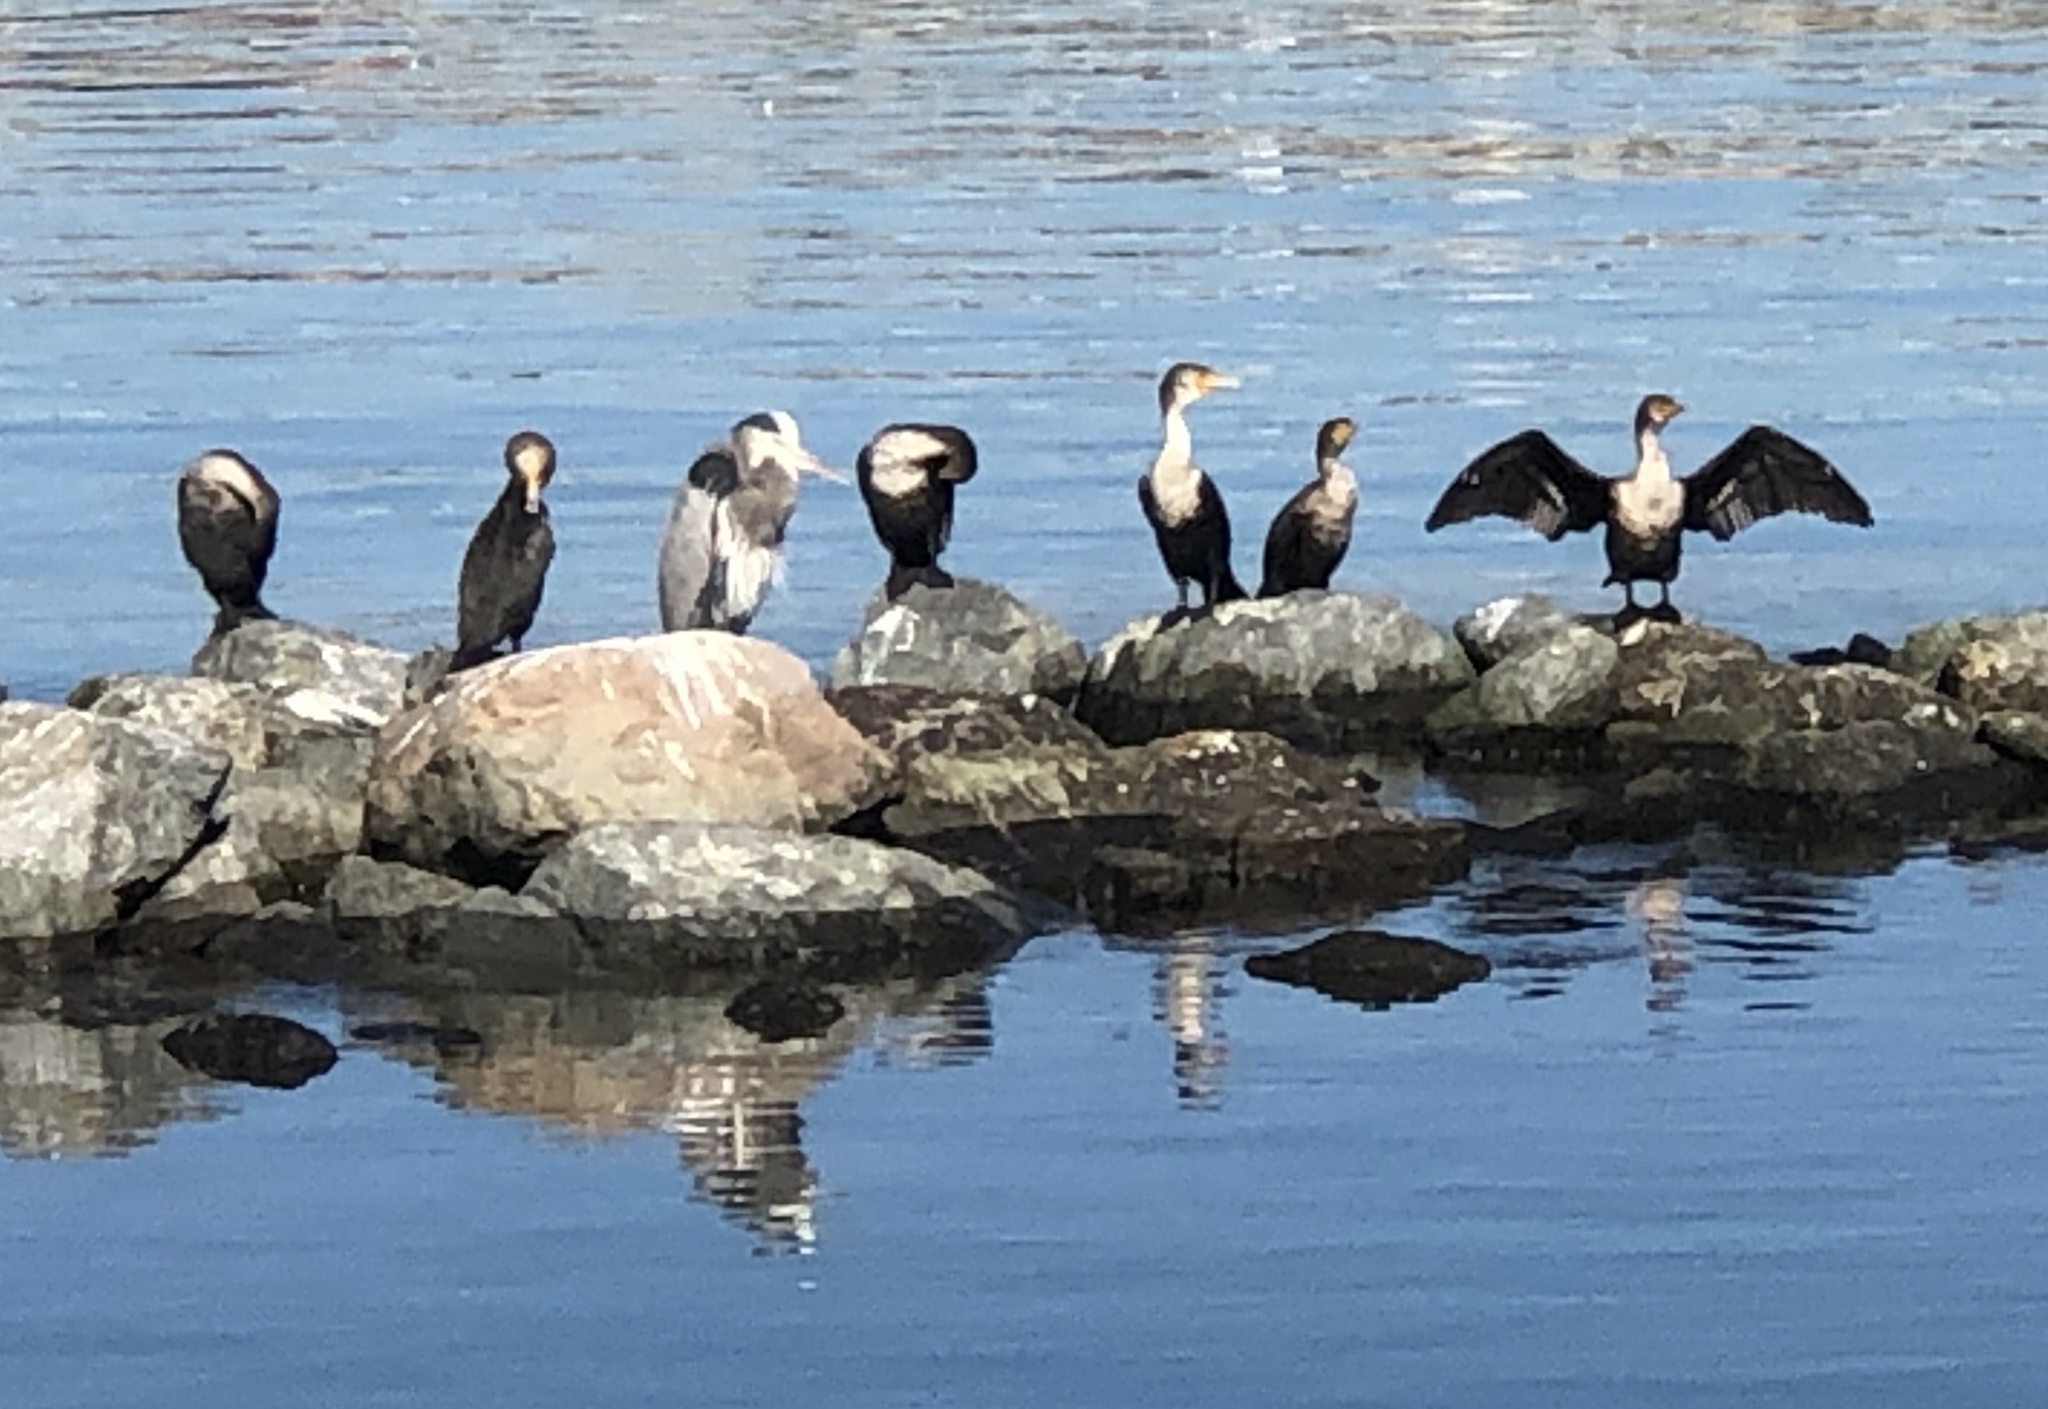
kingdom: Animalia
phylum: Chordata
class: Aves
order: Suliformes
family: Phalacrocoracidae
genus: Phalacrocorax
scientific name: Phalacrocorax auritus
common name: Double-crested cormorant
